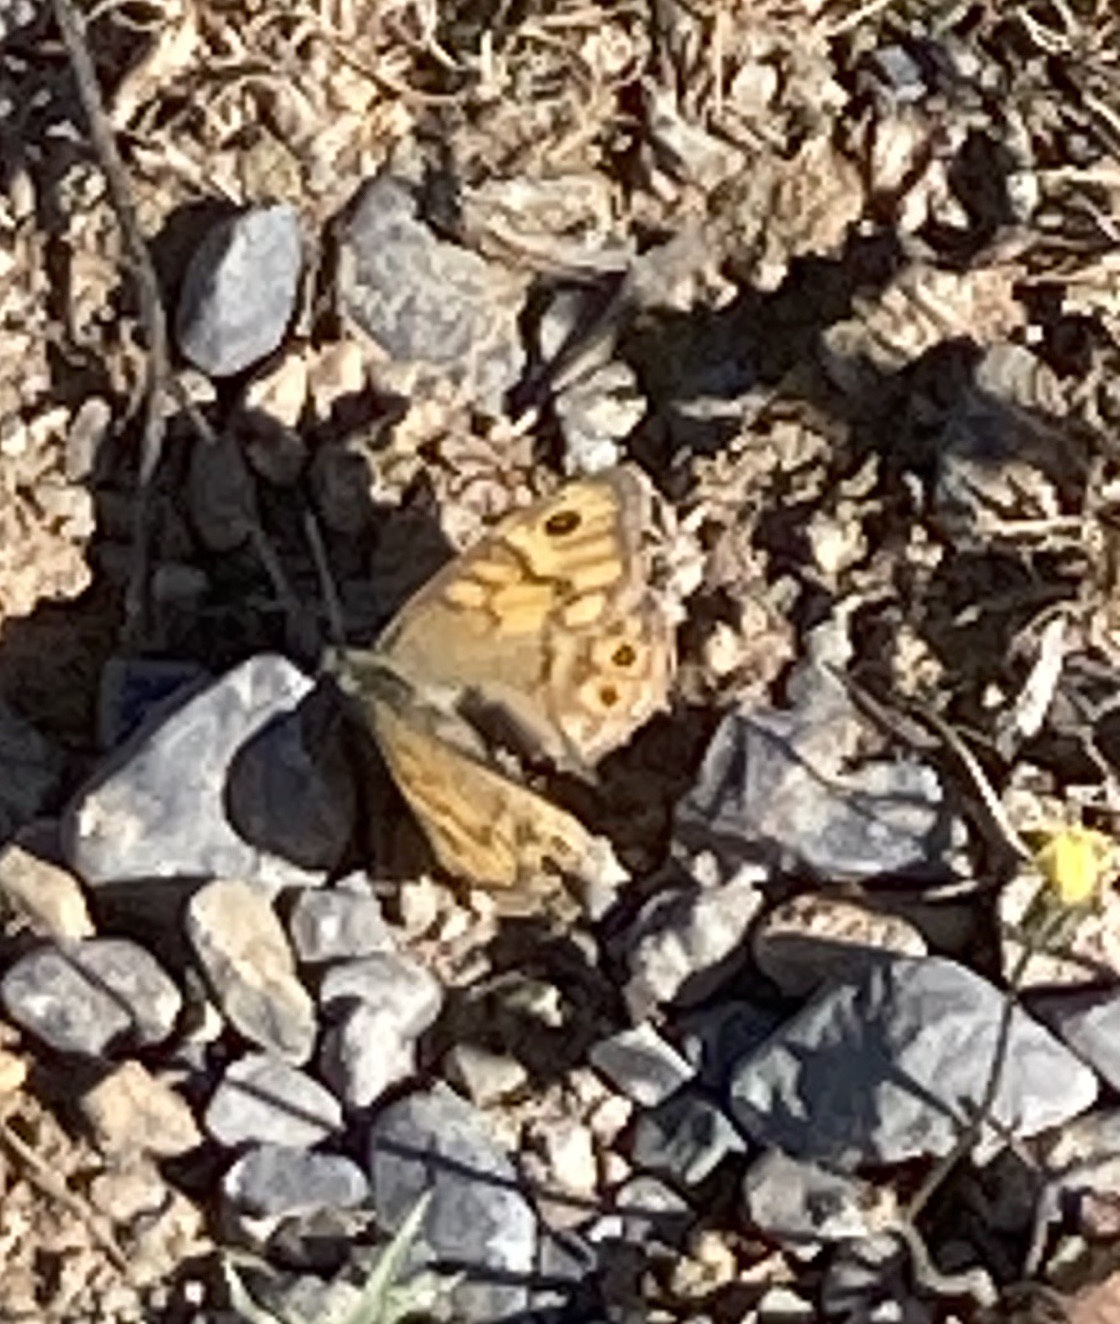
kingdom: Animalia
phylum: Arthropoda
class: Insecta
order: Lepidoptera
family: Nymphalidae
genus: Pararge
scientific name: Pararge Lasiommata megera
